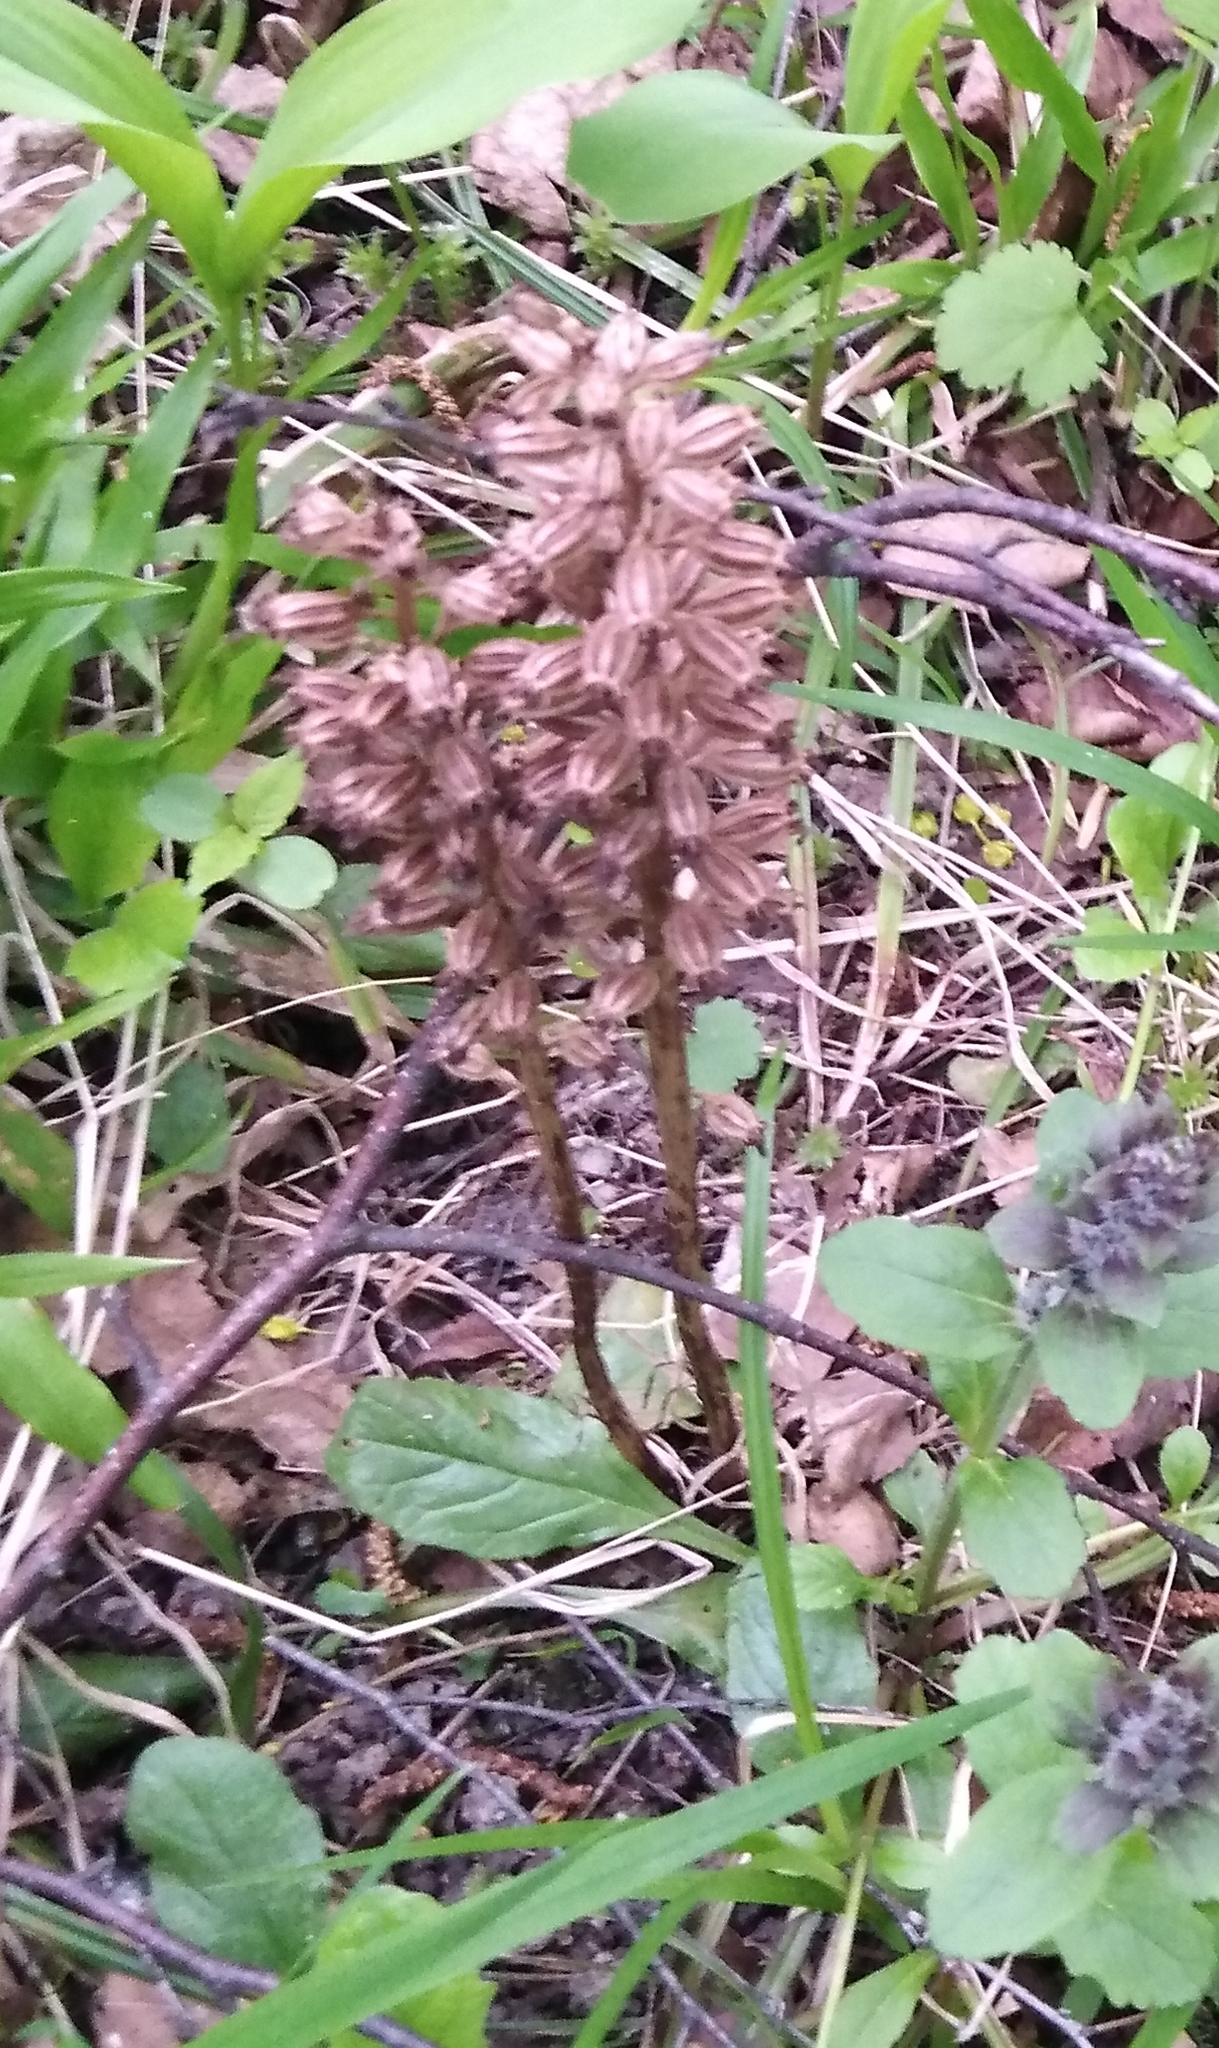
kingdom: Plantae
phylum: Tracheophyta
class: Liliopsida
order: Asparagales
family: Orchidaceae
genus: Neottia
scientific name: Neottia nidus-avis
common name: Bird's-nest orchid
